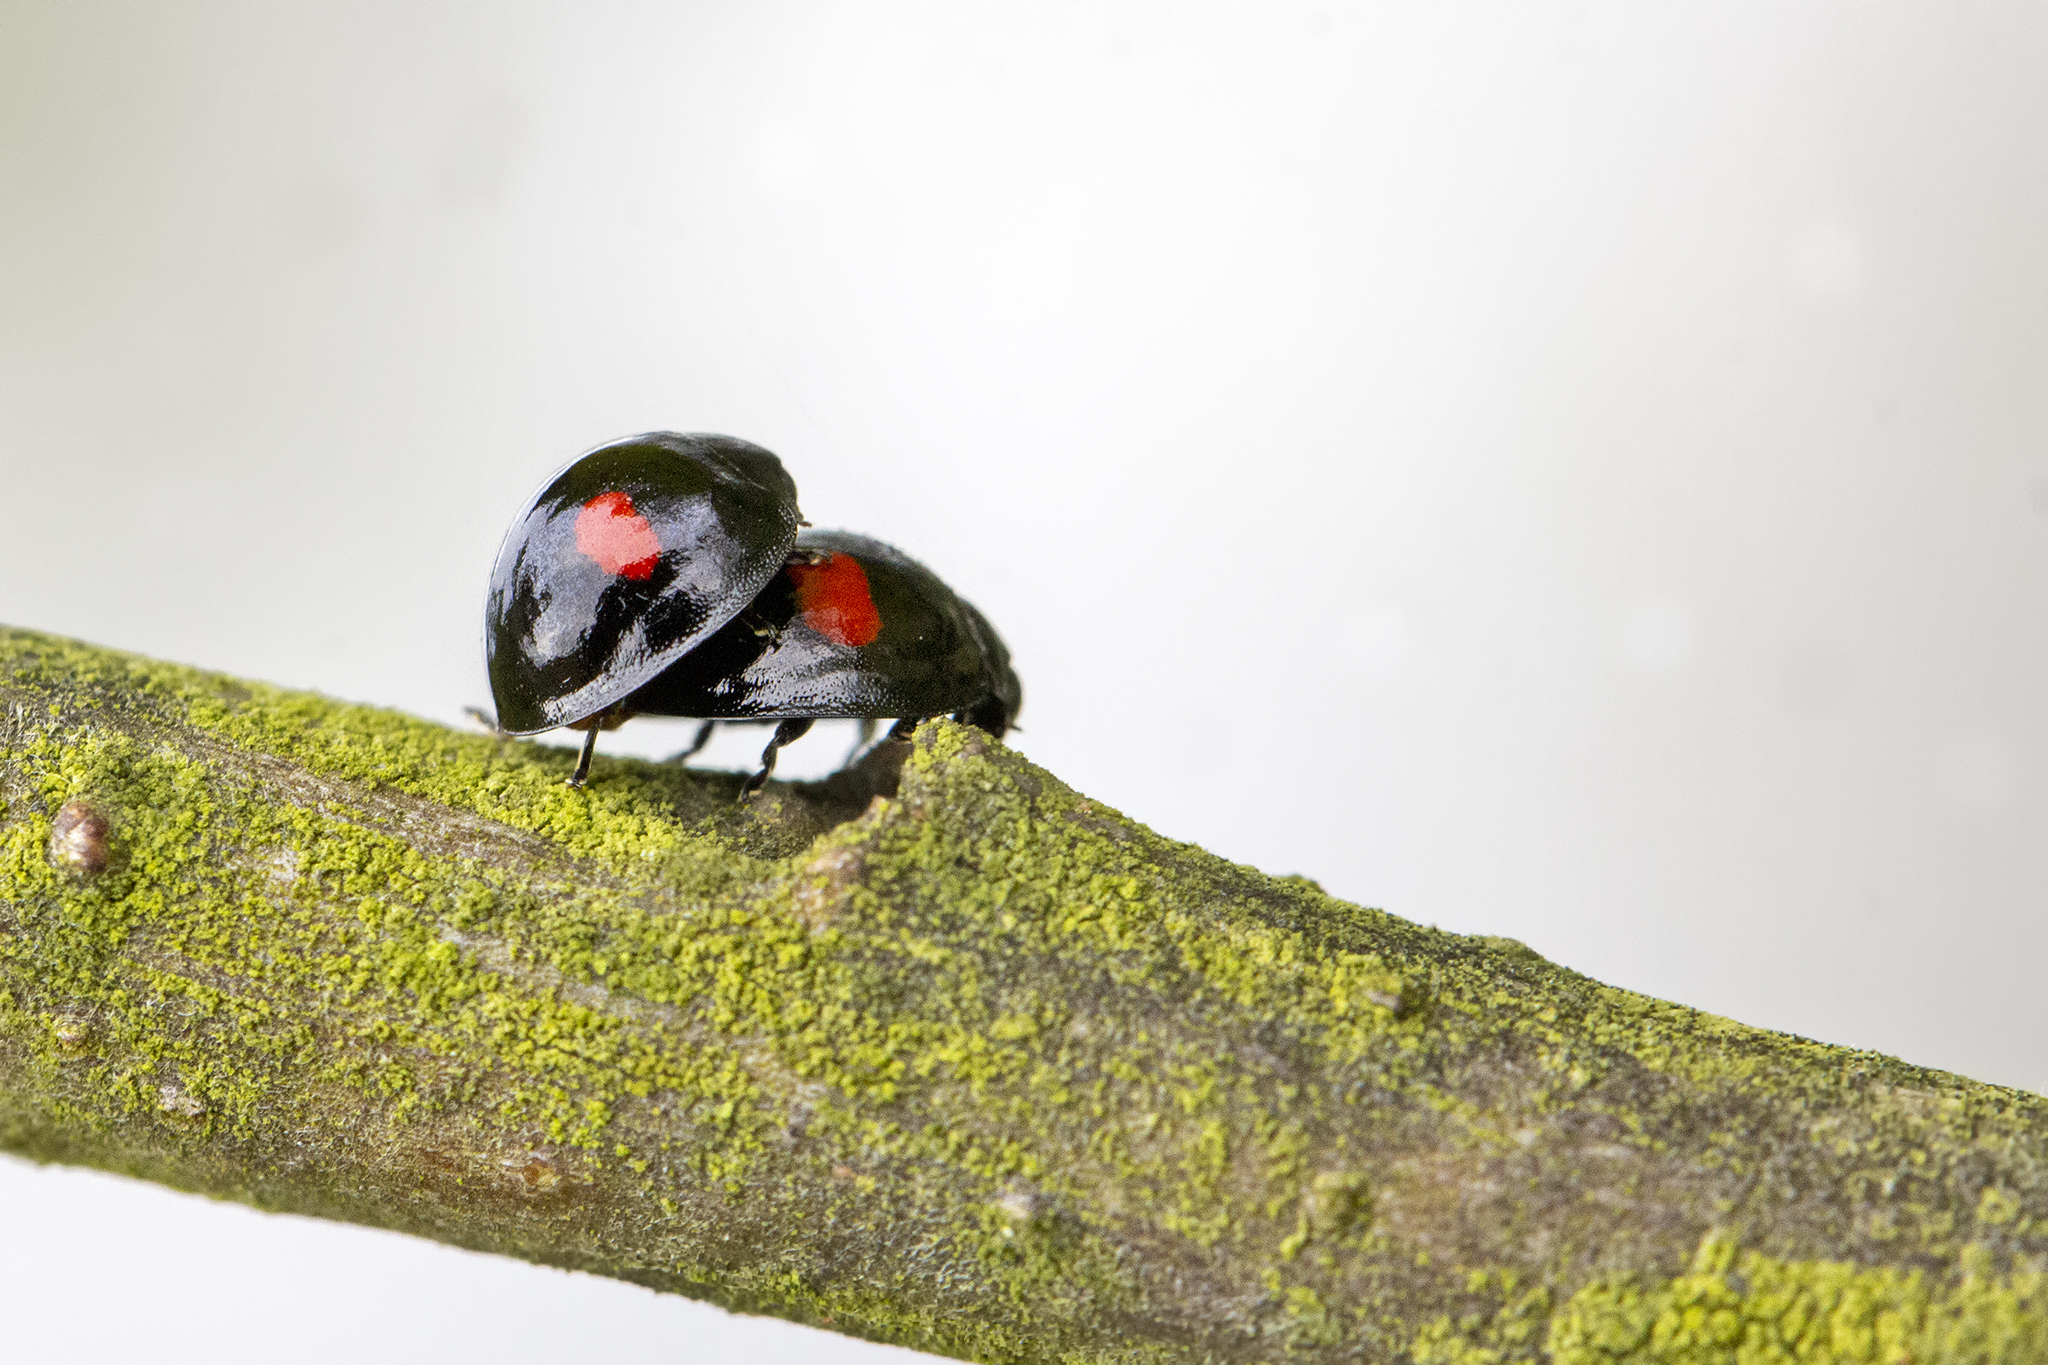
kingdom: Animalia
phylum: Arthropoda
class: Insecta
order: Coleoptera
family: Coccinellidae
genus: Chilocorus
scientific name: Chilocorus renipustulatus
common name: Kidney-spot ladybird
